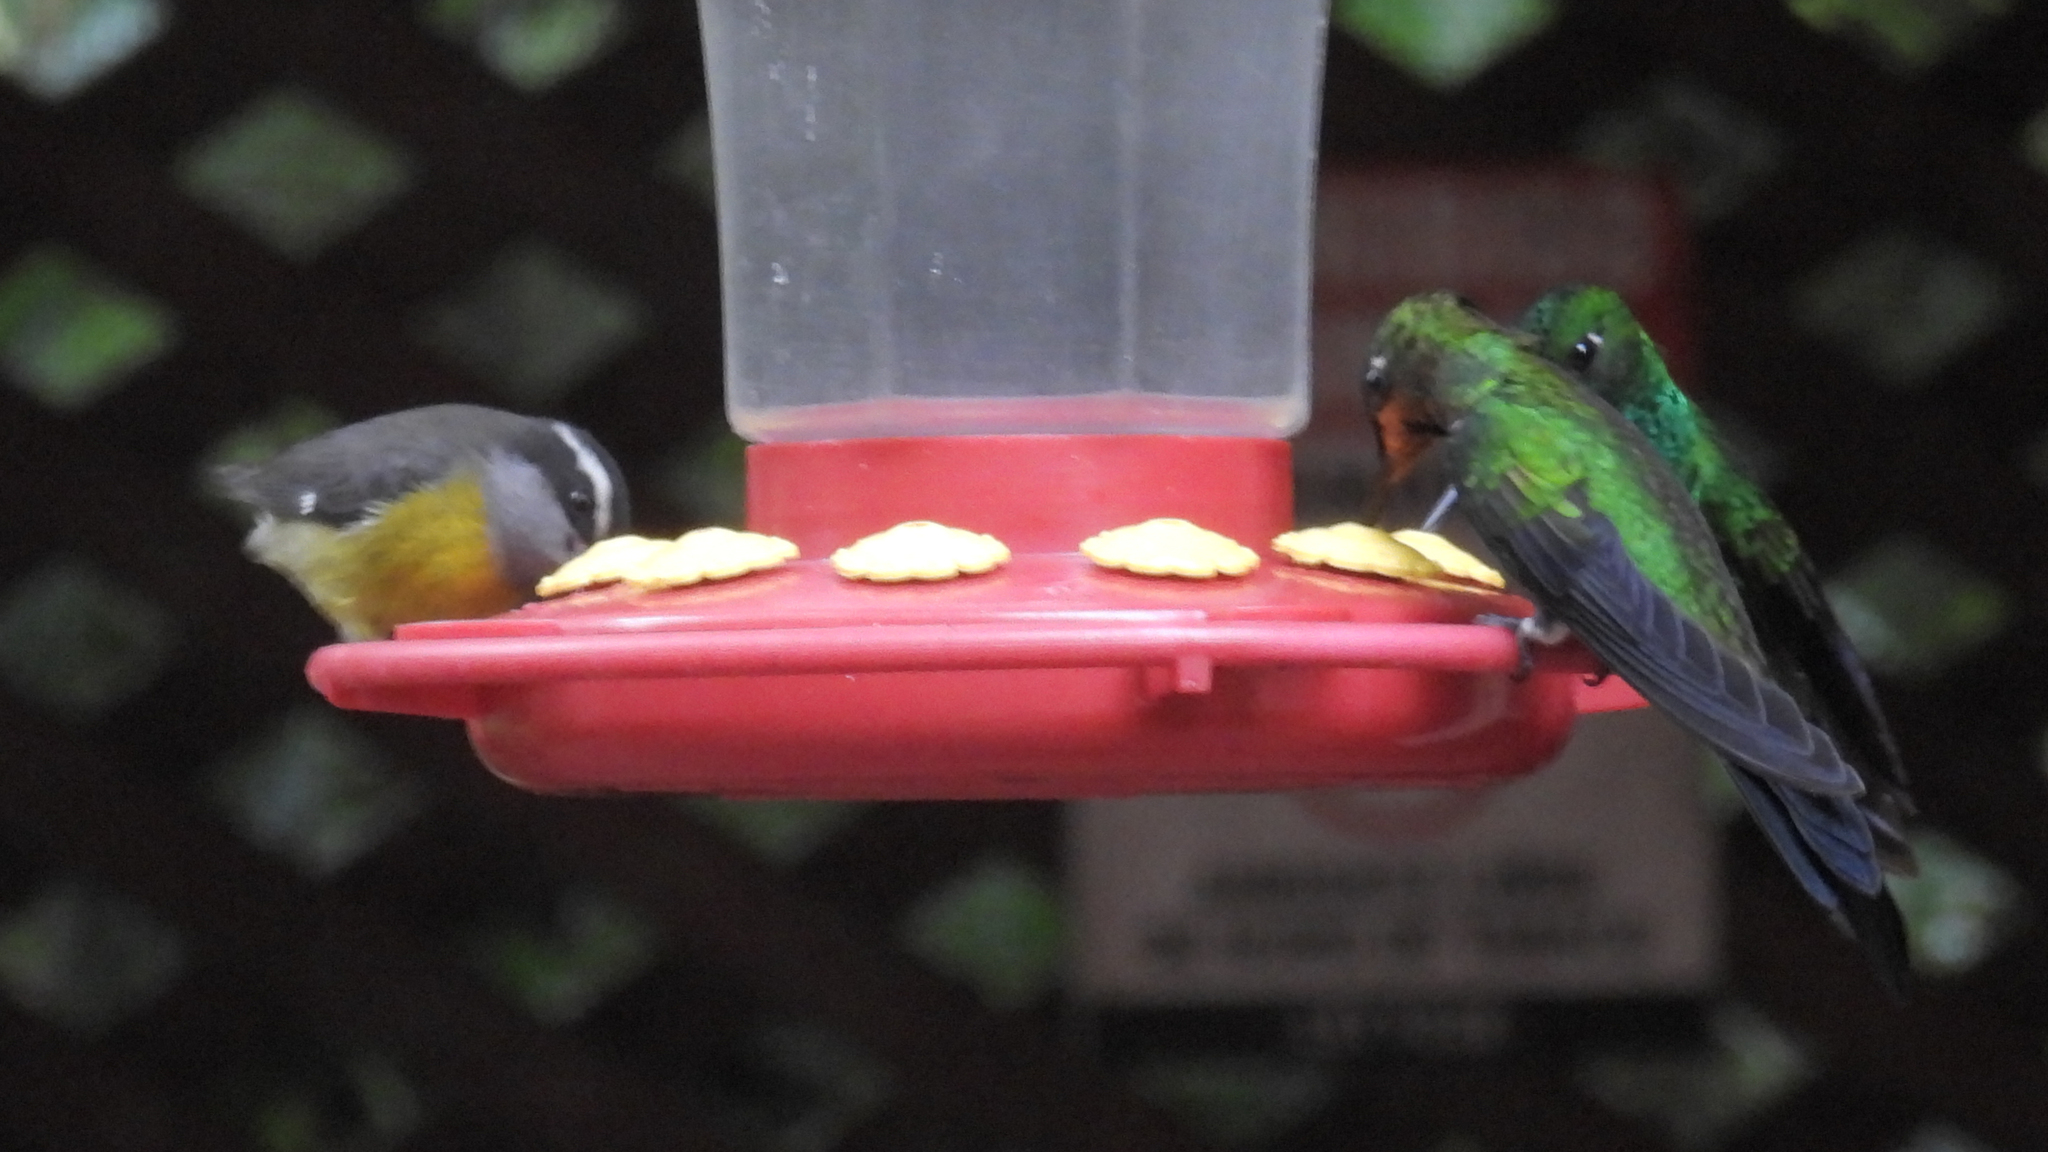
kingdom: Animalia
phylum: Chordata
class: Aves
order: Passeriformes
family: Thraupidae
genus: Coereba
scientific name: Coereba flaveola
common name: Bananaquit
